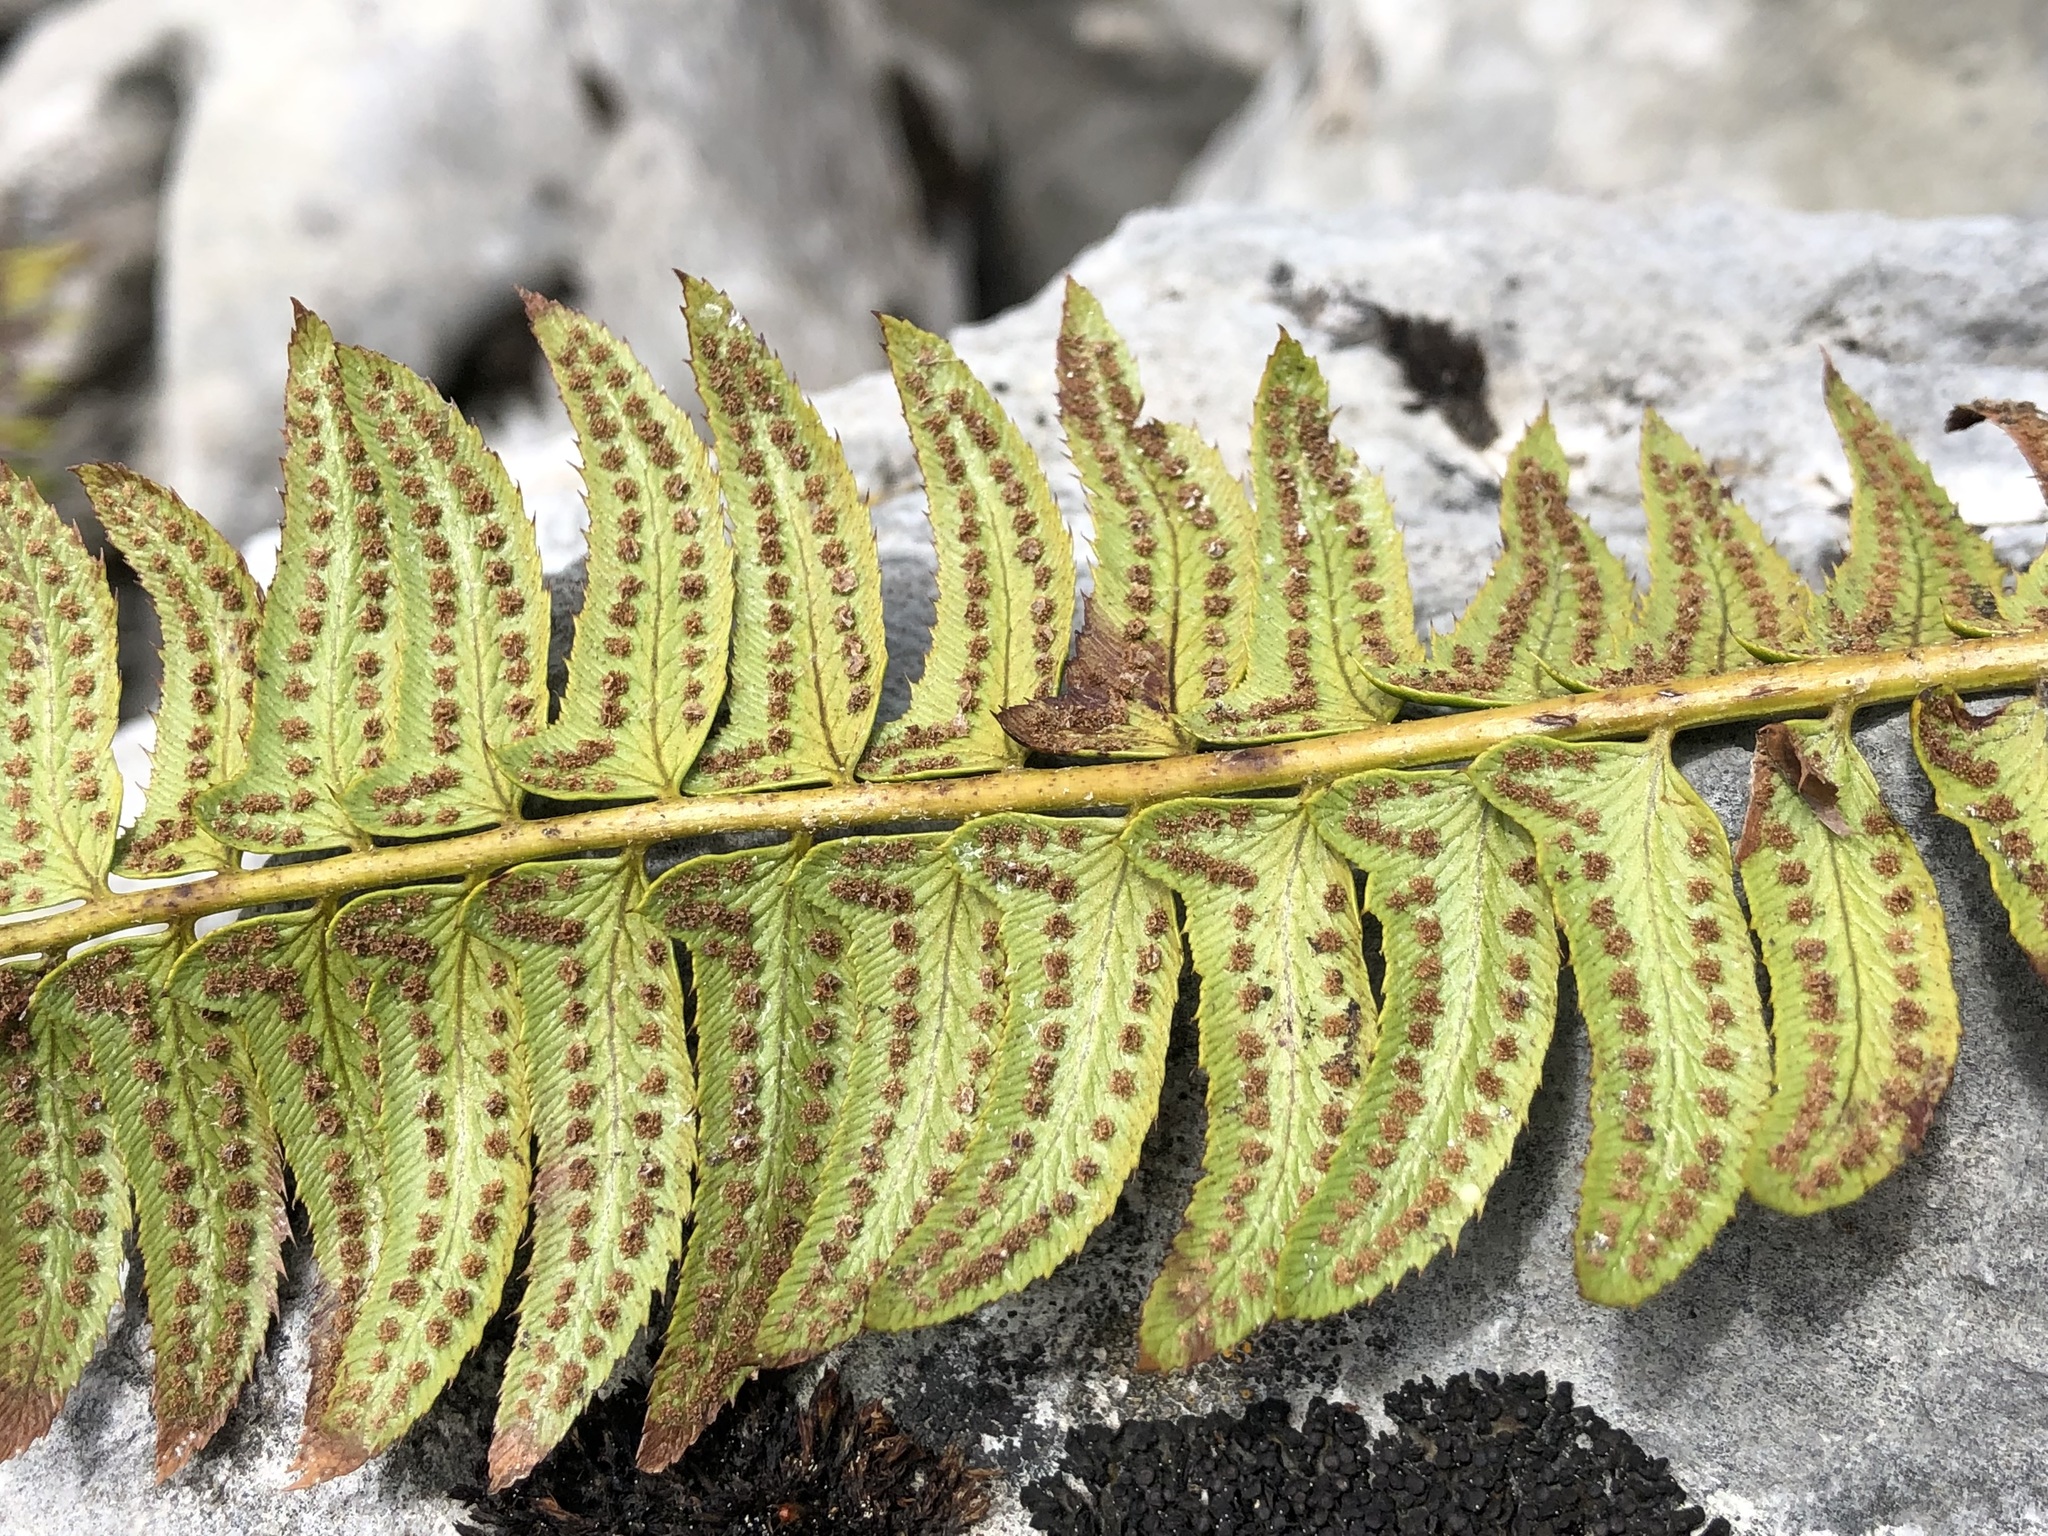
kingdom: Plantae
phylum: Tracheophyta
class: Polypodiopsida
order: Polypodiales
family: Dryopteridaceae
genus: Polystichum
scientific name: Polystichum lonchitis
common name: Holly fern
